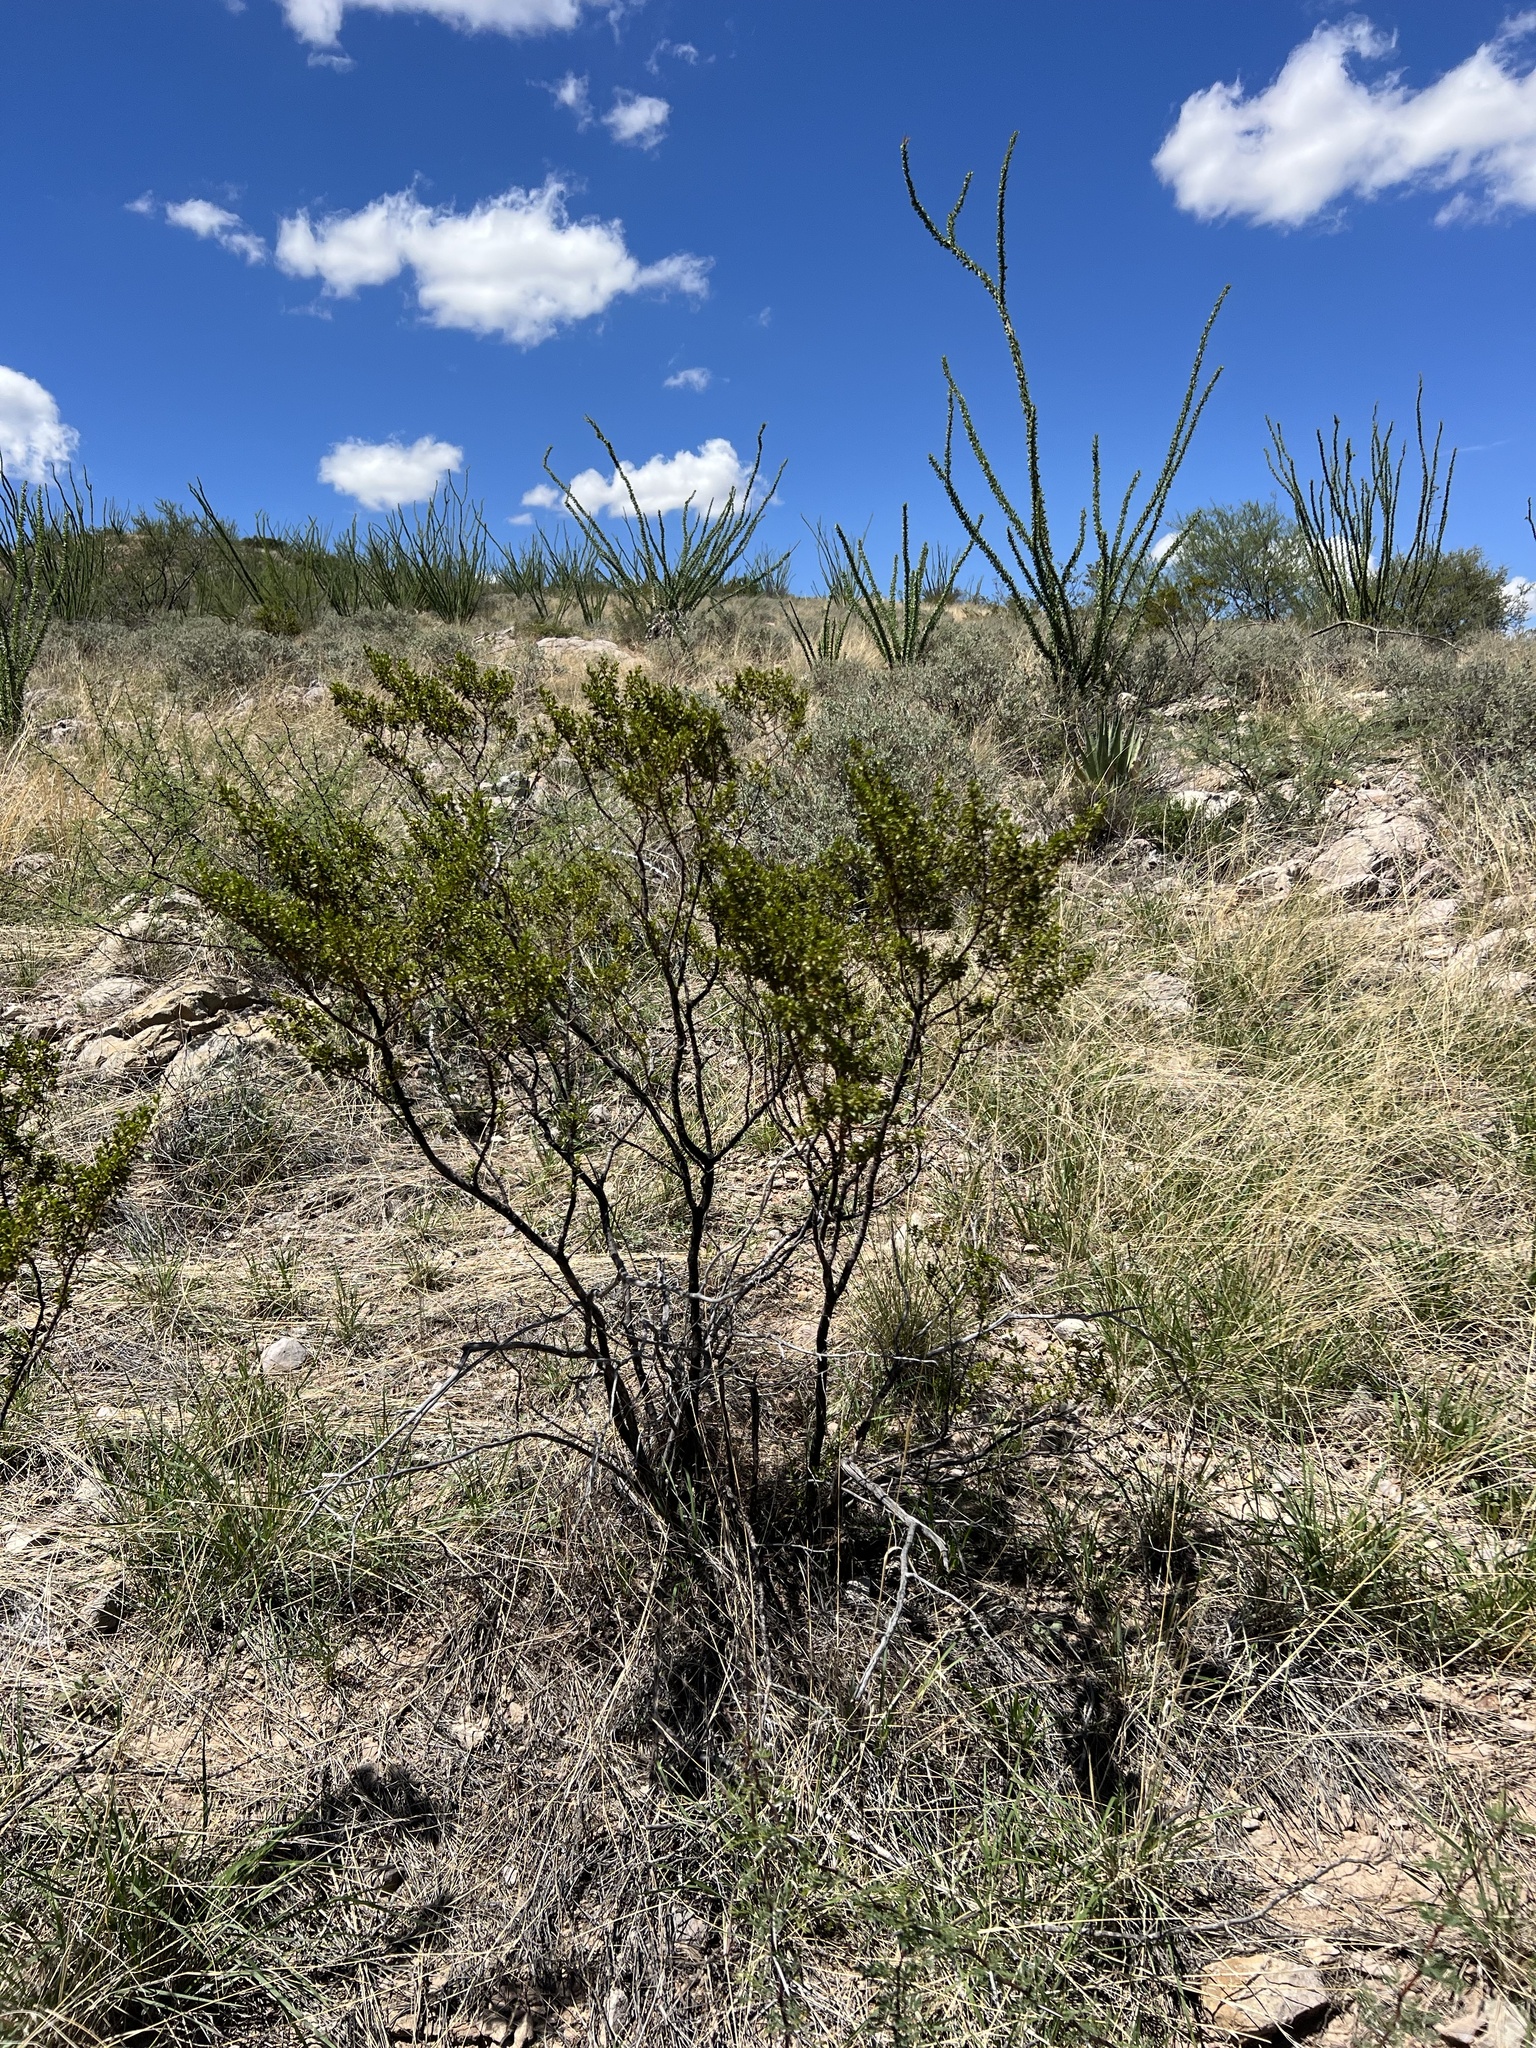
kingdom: Plantae
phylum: Tracheophyta
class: Magnoliopsida
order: Zygophyllales
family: Zygophyllaceae
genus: Larrea
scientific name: Larrea tridentata
